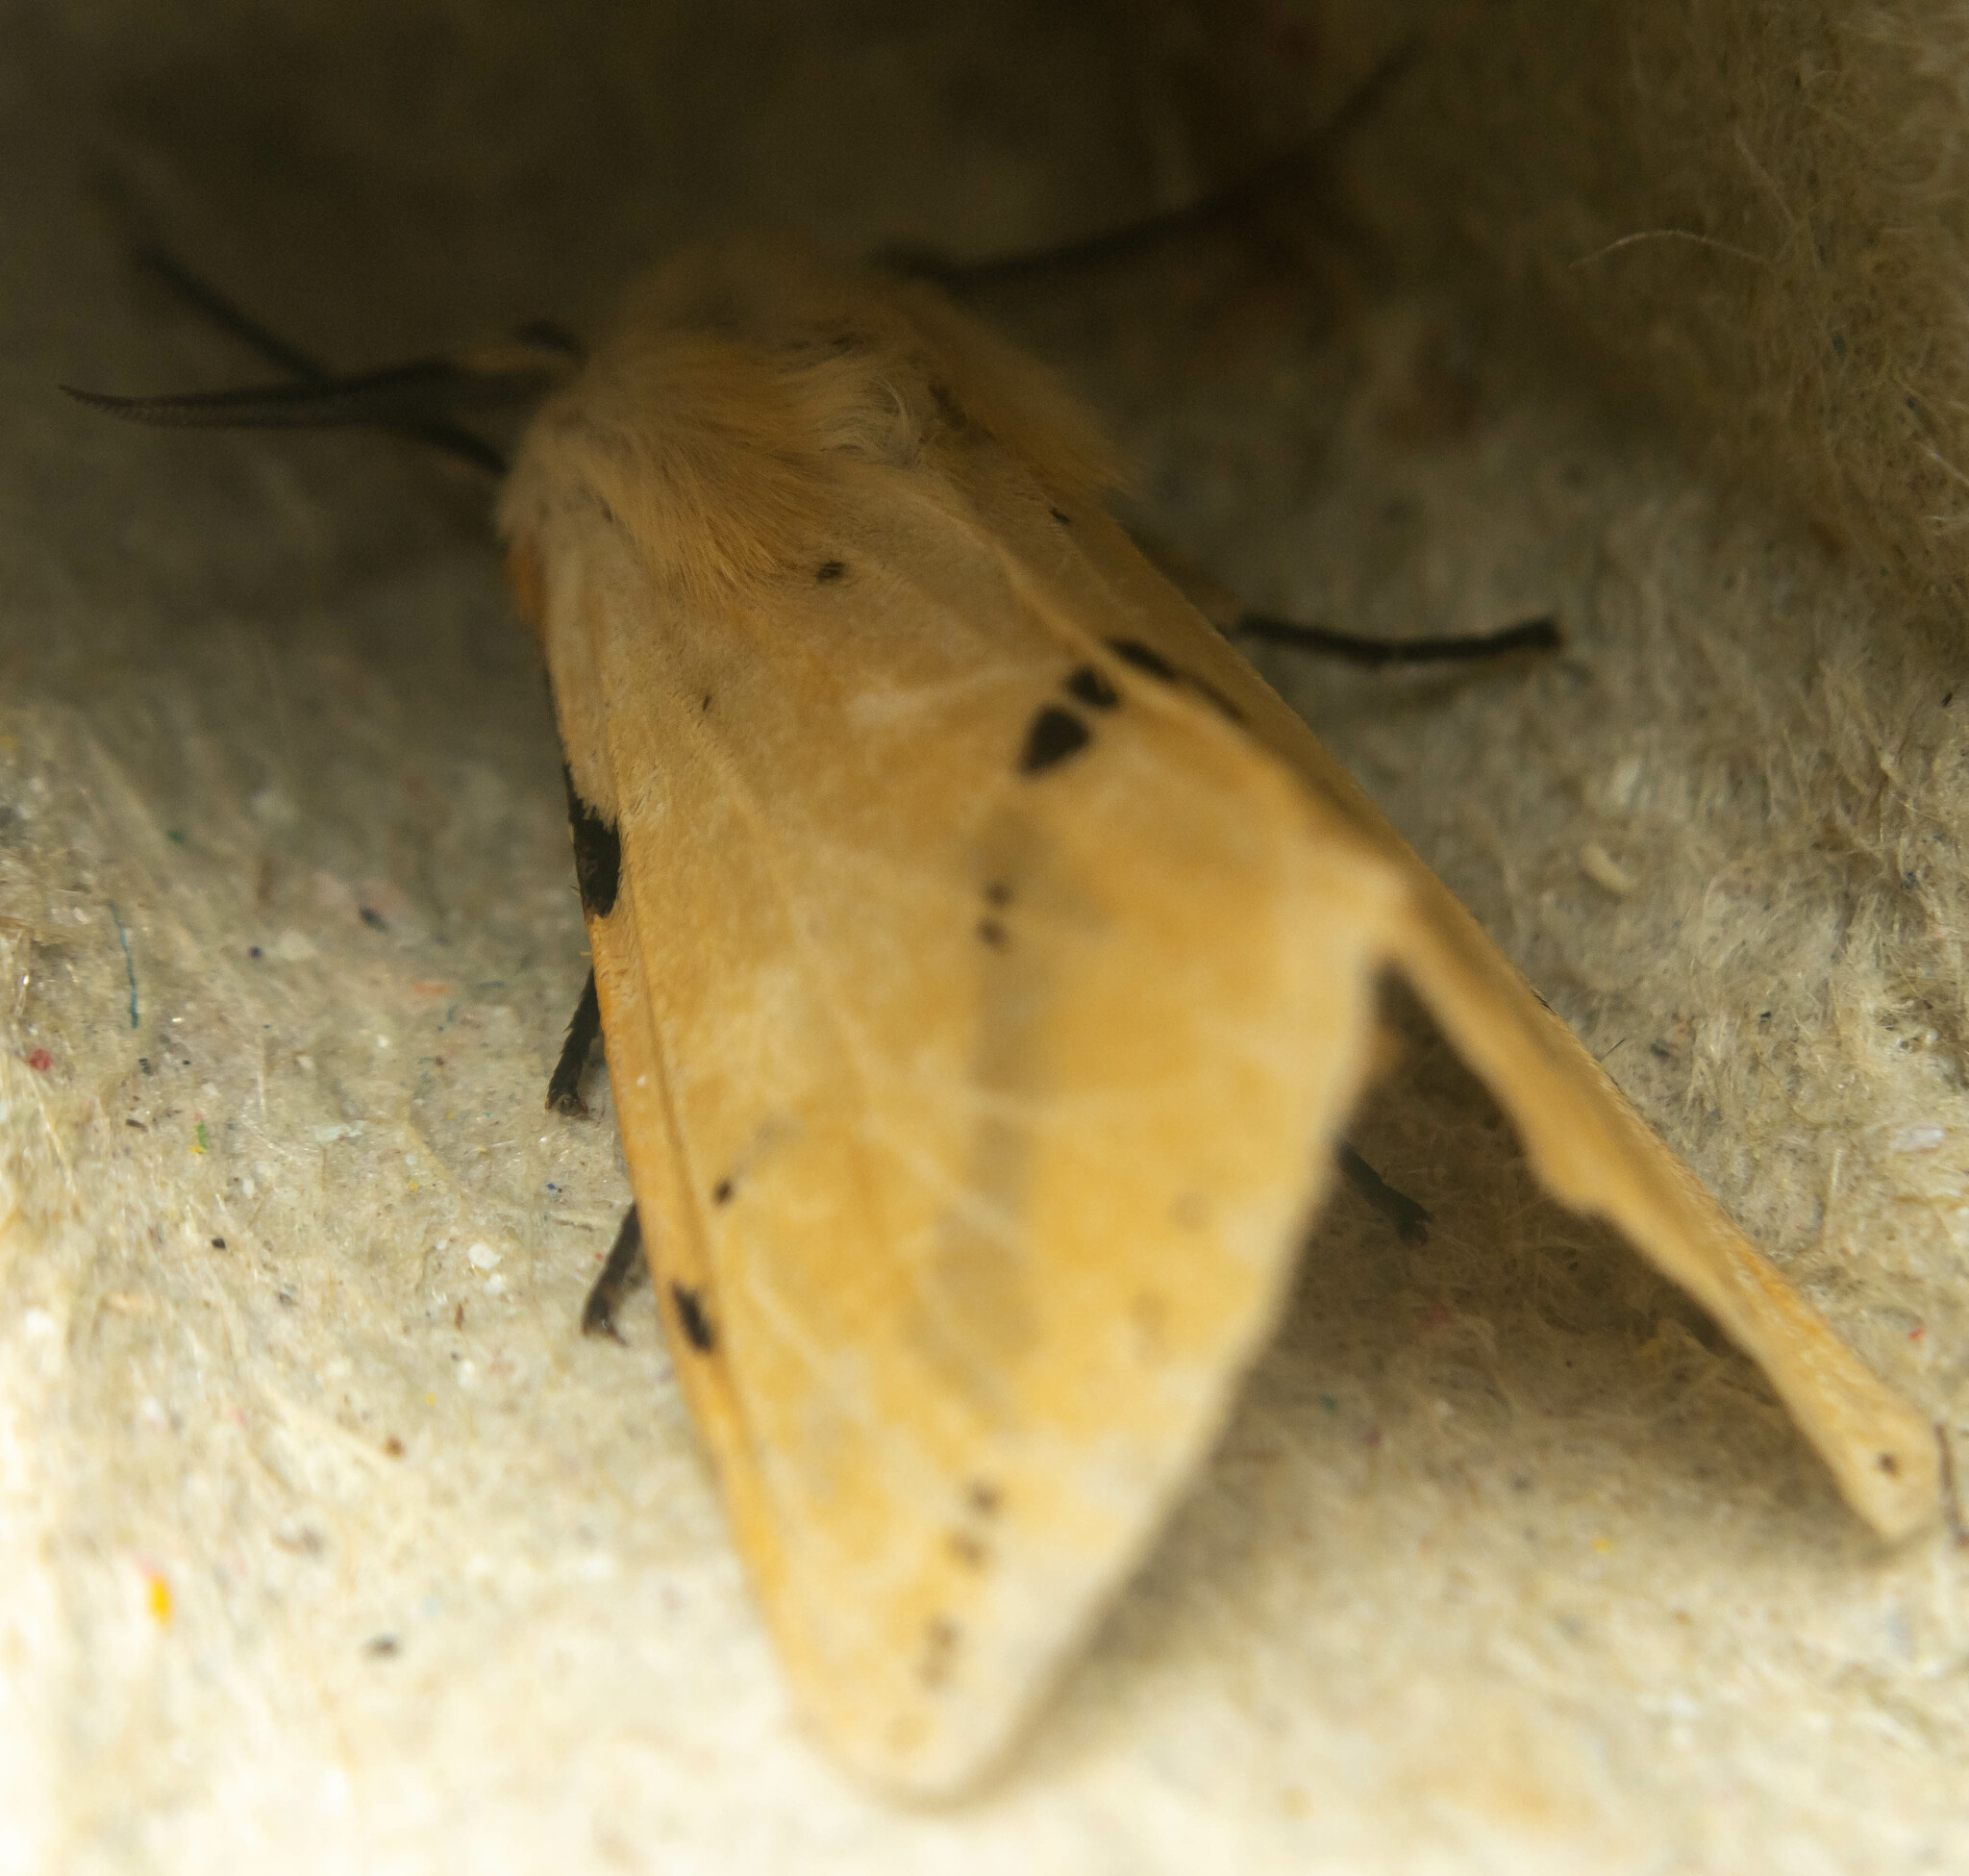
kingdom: Animalia
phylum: Arthropoda
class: Insecta
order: Lepidoptera
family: Erebidae
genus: Spilarctia
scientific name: Spilarctia lutea
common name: Buff ermine
